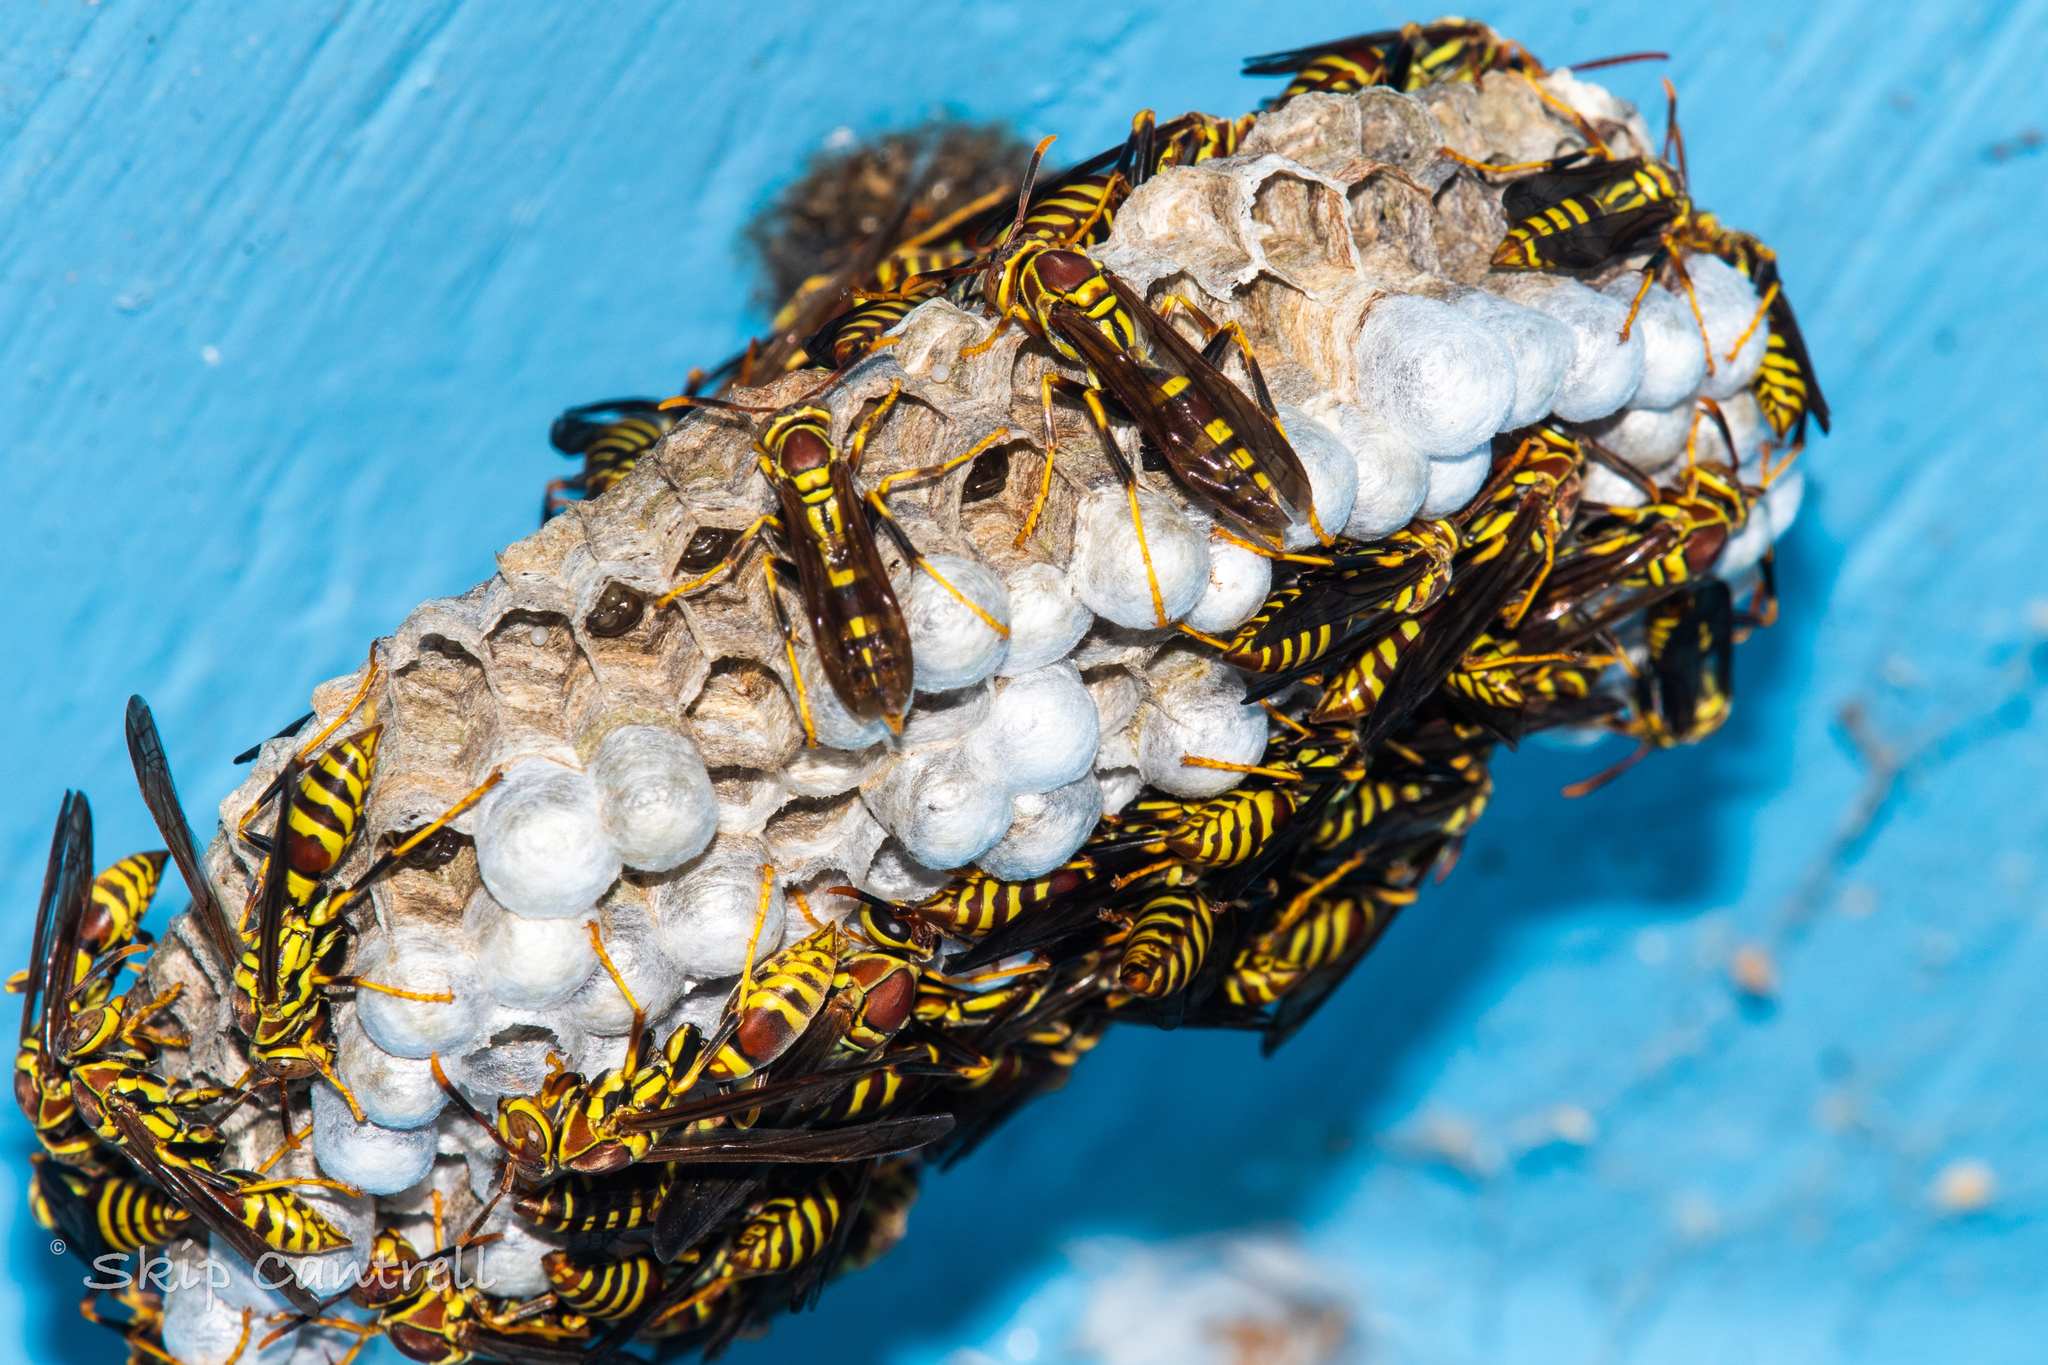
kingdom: Animalia
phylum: Arthropoda
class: Insecta
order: Hymenoptera
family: Eumenidae
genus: Polistes
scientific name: Polistes exclamans
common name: Paper wasp
